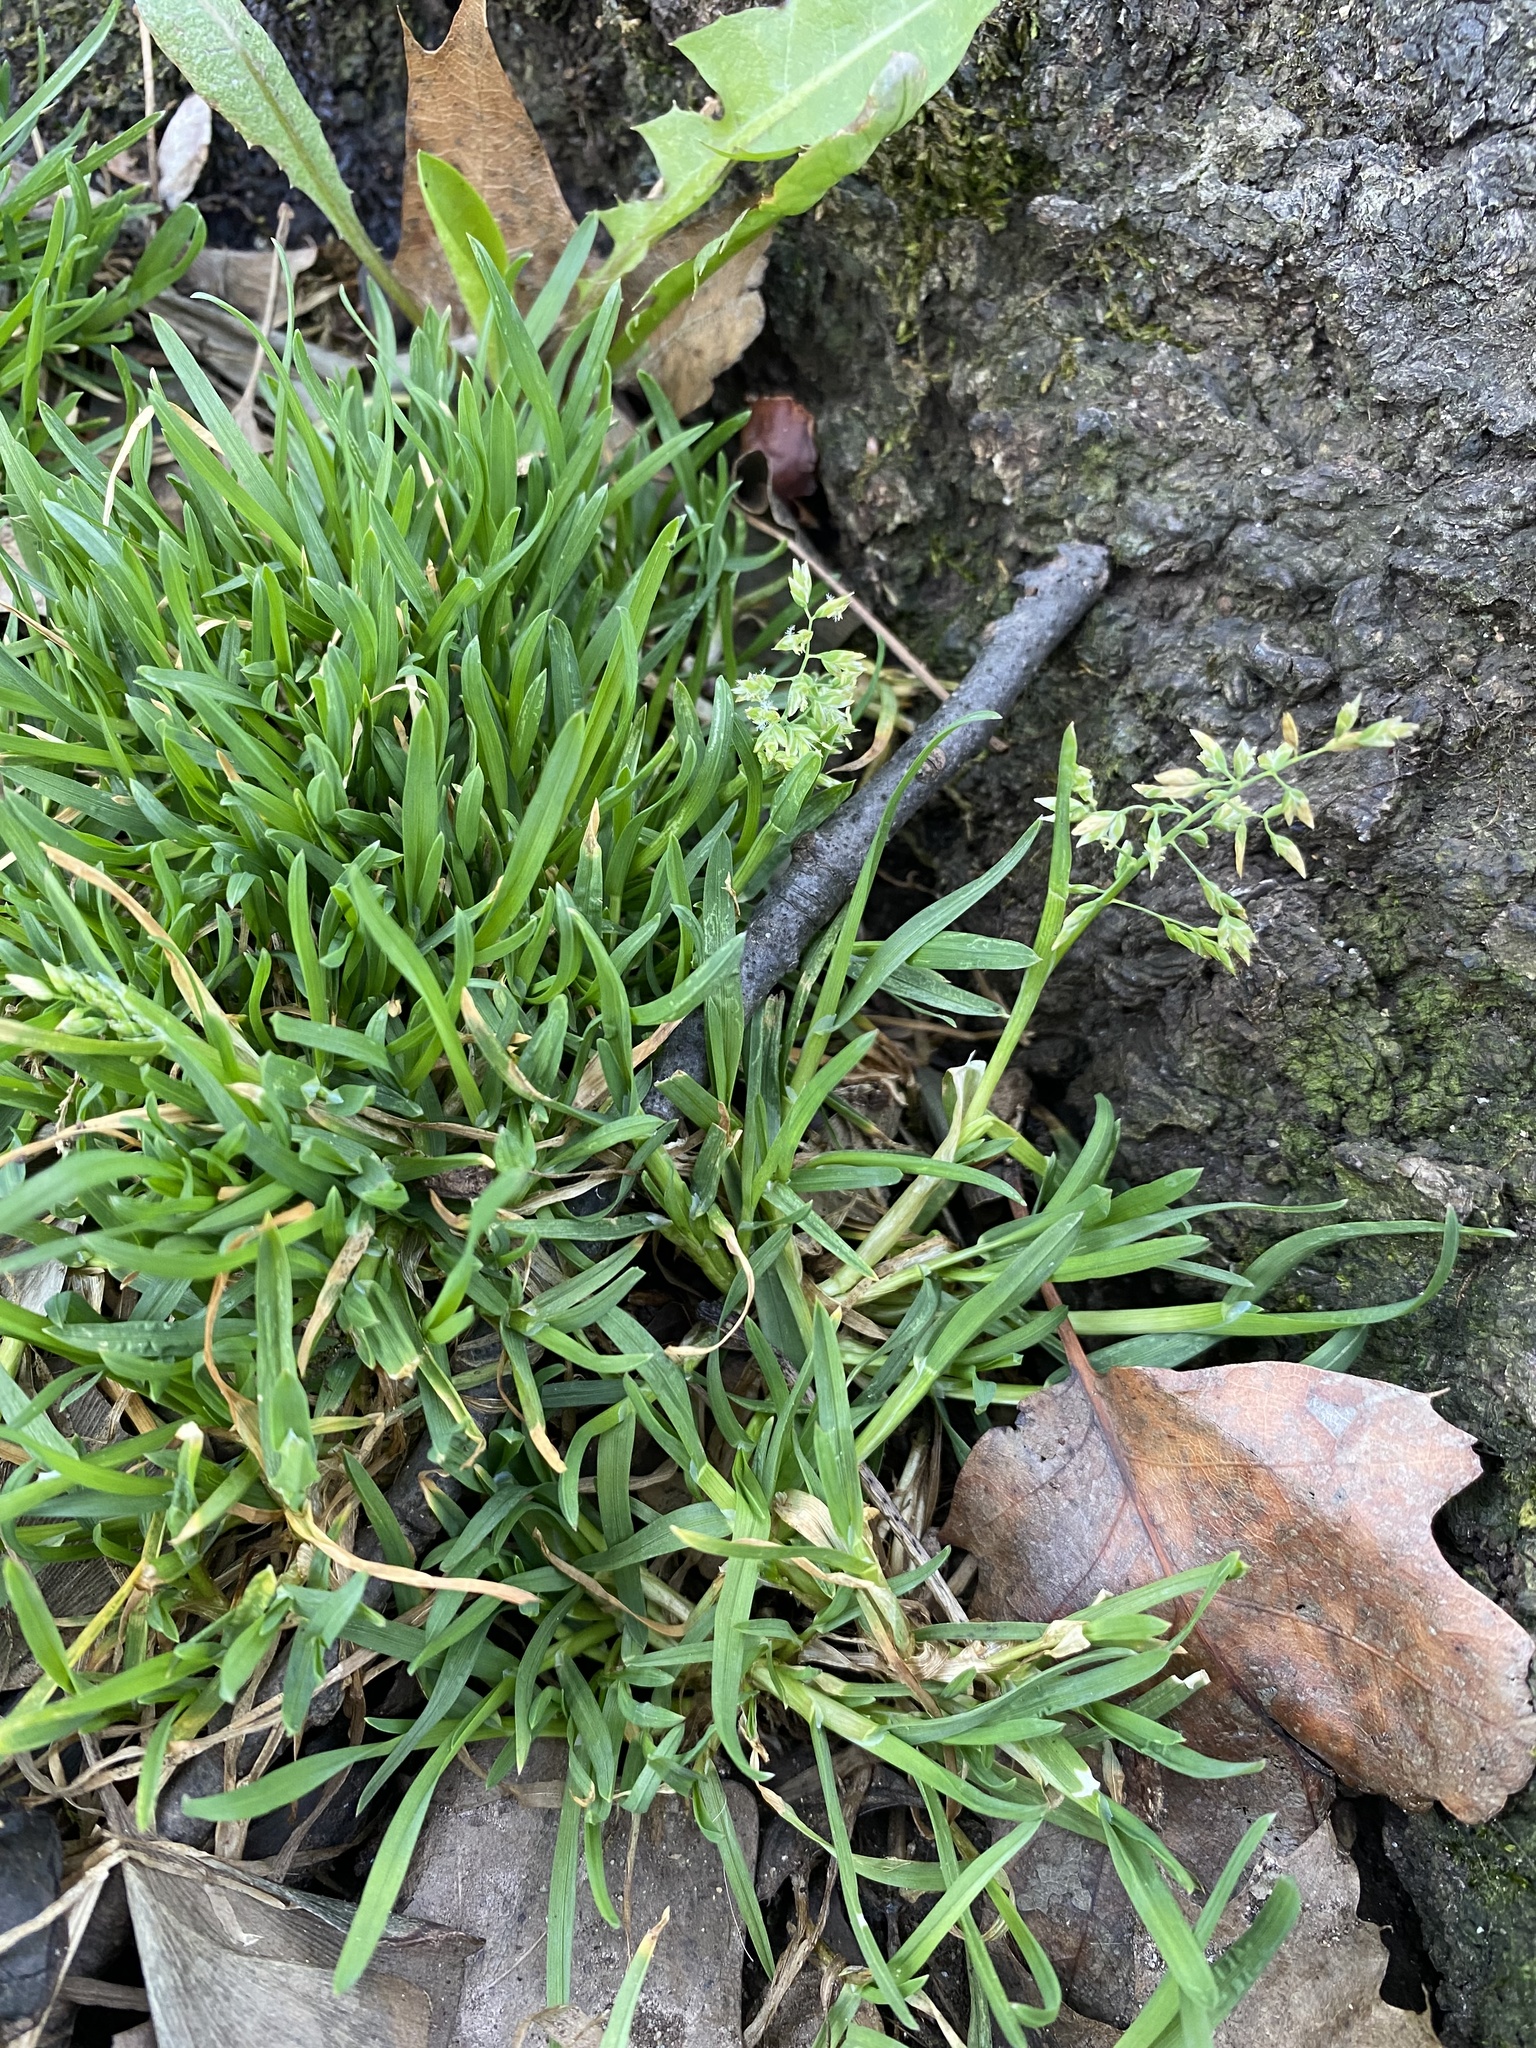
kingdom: Plantae
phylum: Tracheophyta
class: Liliopsida
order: Poales
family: Poaceae
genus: Poa
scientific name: Poa annua
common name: Annual bluegrass
